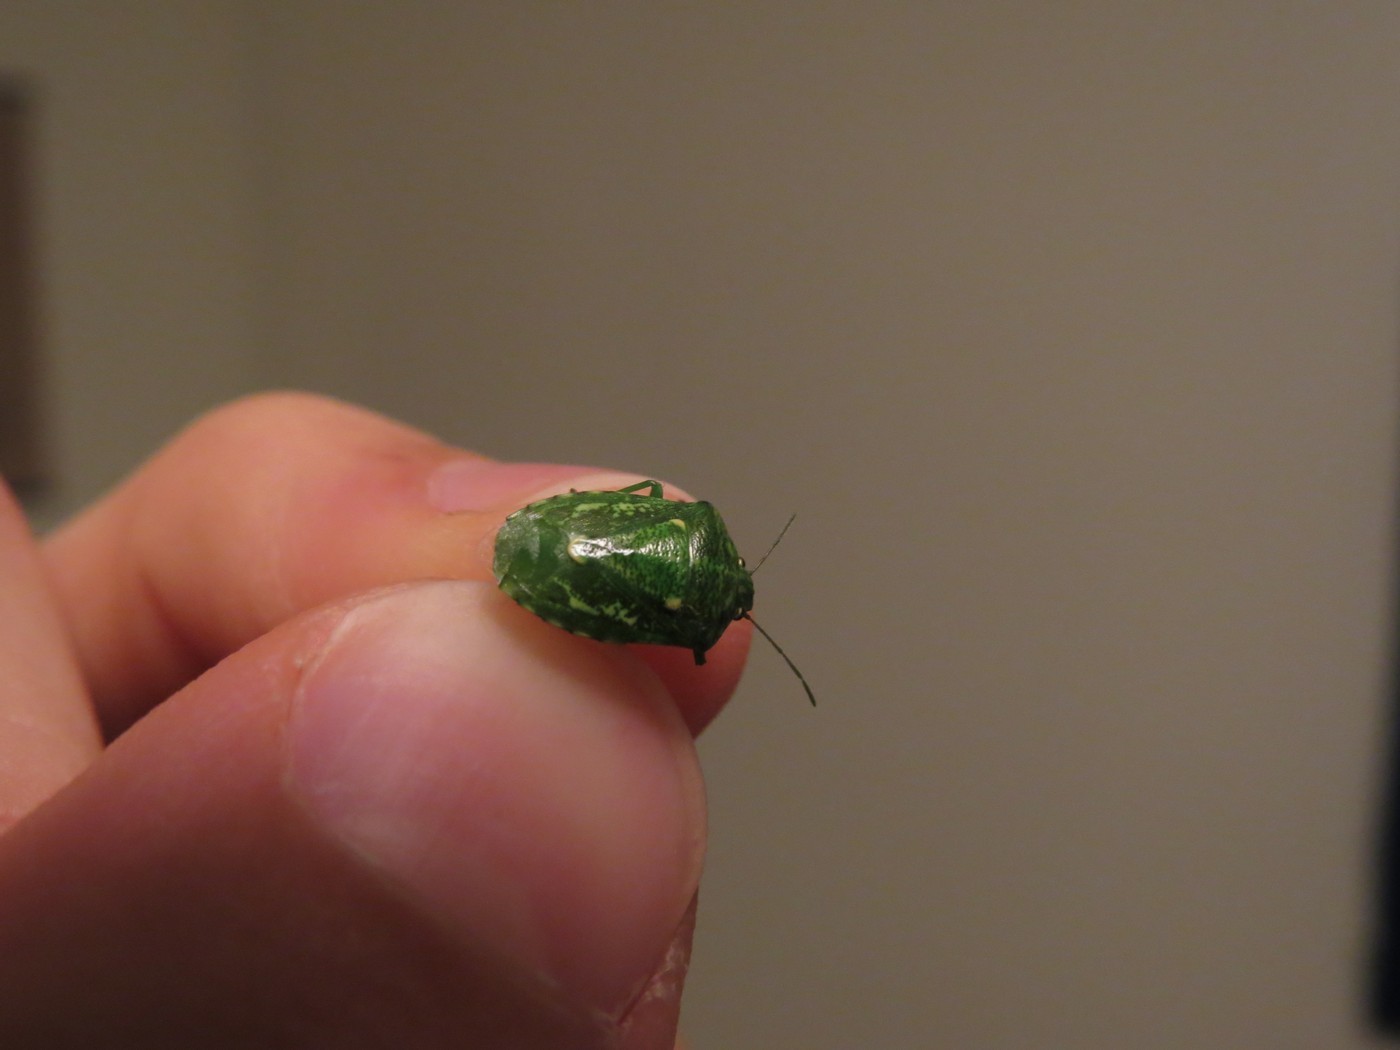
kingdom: Animalia
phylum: Arthropoda
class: Insecta
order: Hemiptera
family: Pentatomidae
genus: Banasa
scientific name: Banasa euchlora
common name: Cedar berry bug
